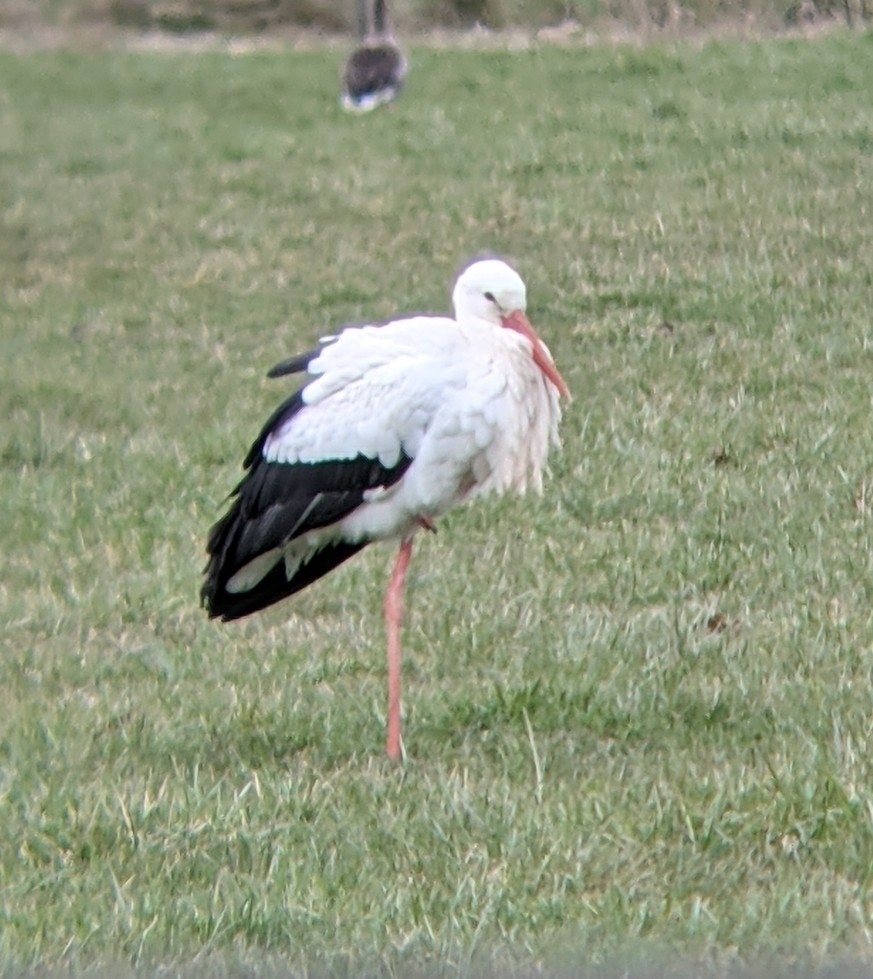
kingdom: Animalia
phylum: Chordata
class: Aves
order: Ciconiiformes
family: Ciconiidae
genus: Ciconia
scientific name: Ciconia ciconia
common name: White stork
